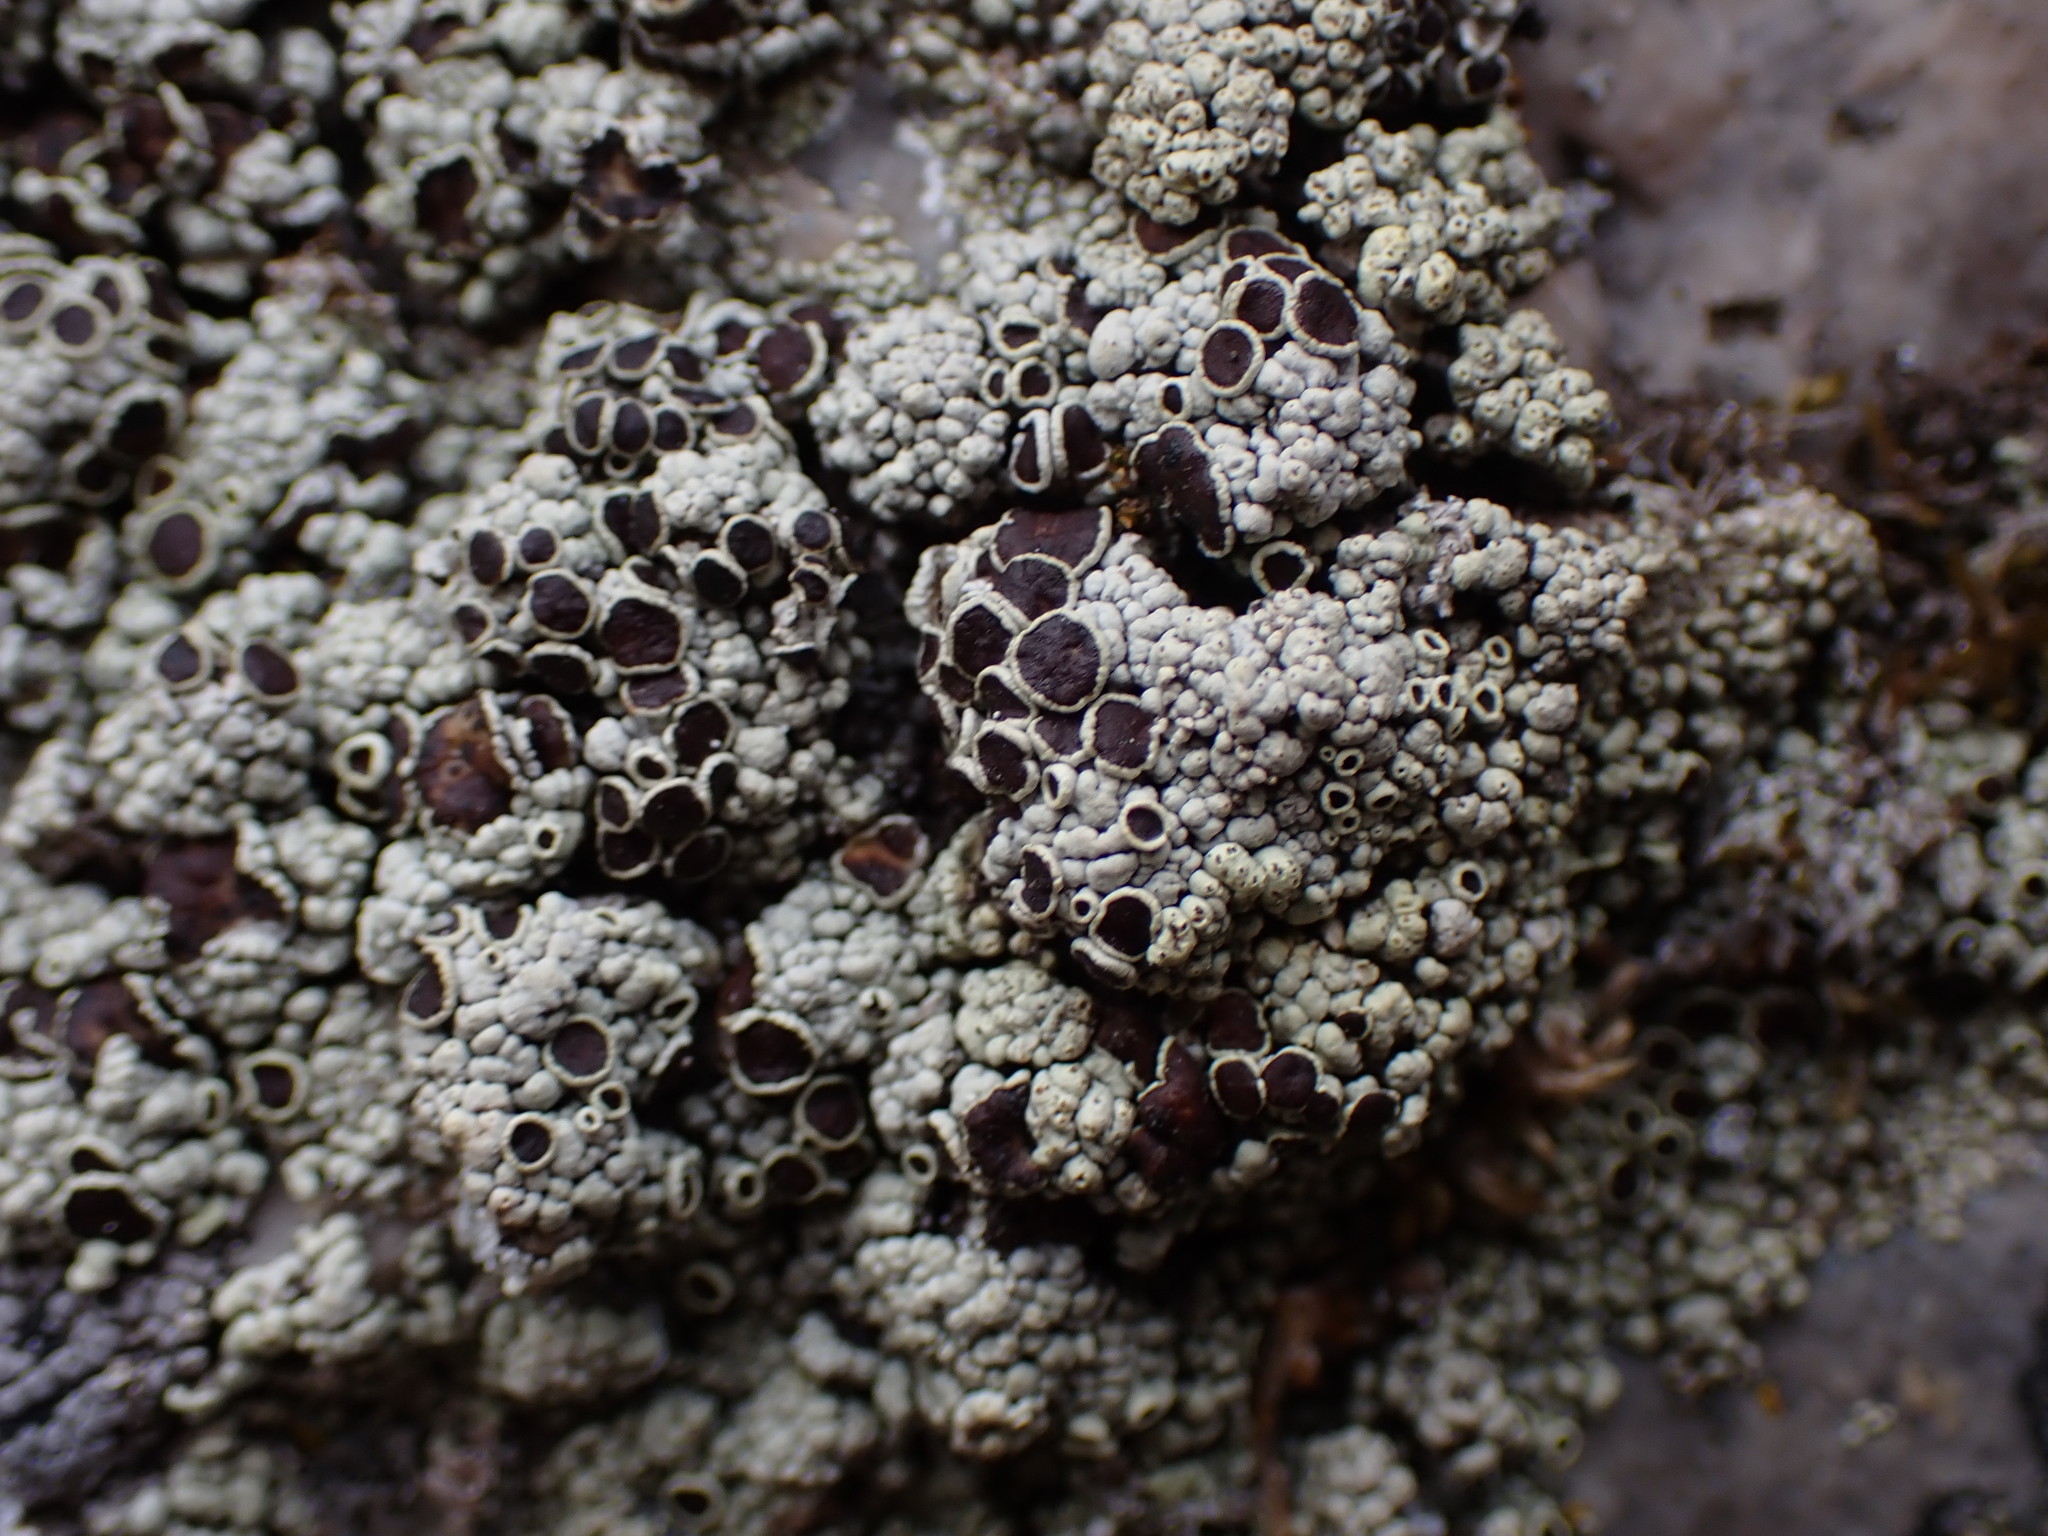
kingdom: Fungi
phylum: Ascomycota
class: Lecanoromycetes
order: Lecanorales
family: Lecanoraceae
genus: Lecanora
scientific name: Lecanora argopholis
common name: Varying rim lichen
